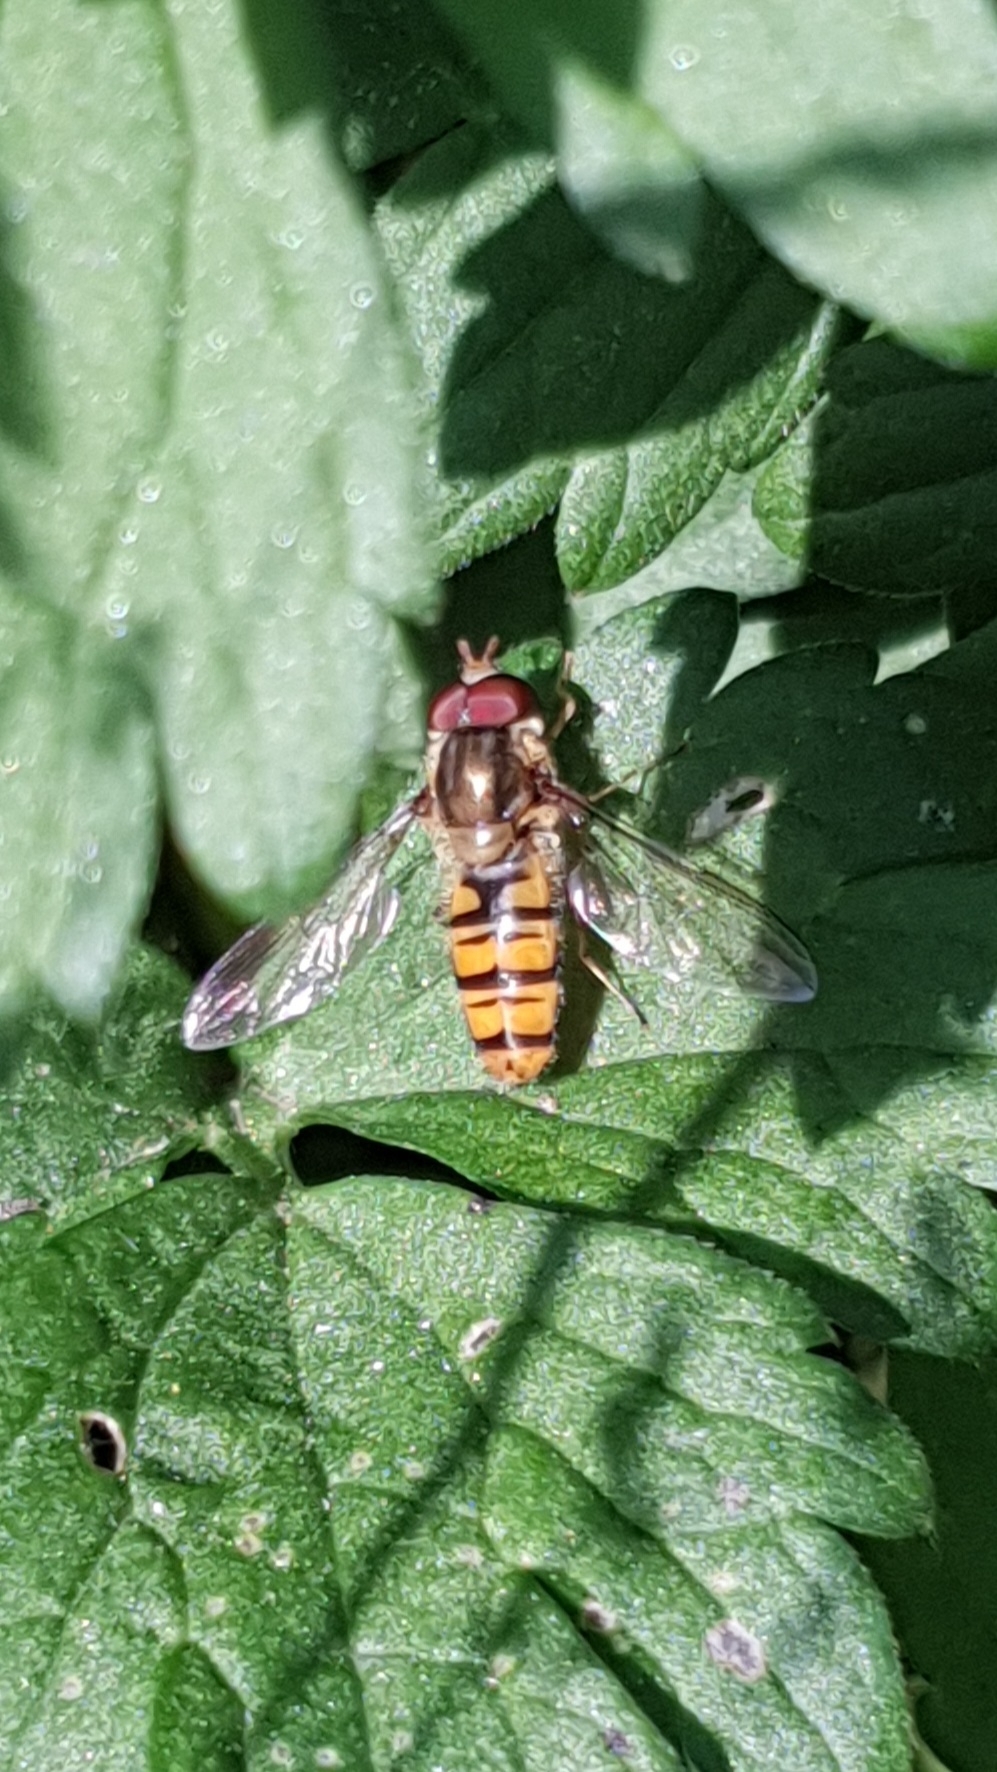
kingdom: Animalia
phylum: Arthropoda
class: Insecta
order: Diptera
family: Syrphidae
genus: Episyrphus
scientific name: Episyrphus balteatus
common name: Marmalade hoverfly
